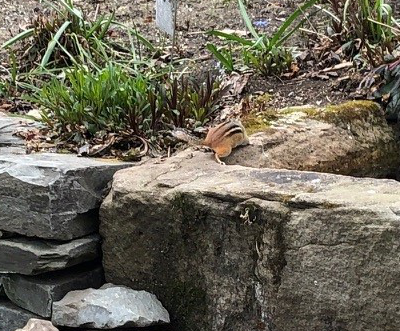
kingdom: Animalia
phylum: Chordata
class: Mammalia
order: Rodentia
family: Sciuridae
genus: Tamias
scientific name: Tamias striatus
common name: Eastern chipmunk
